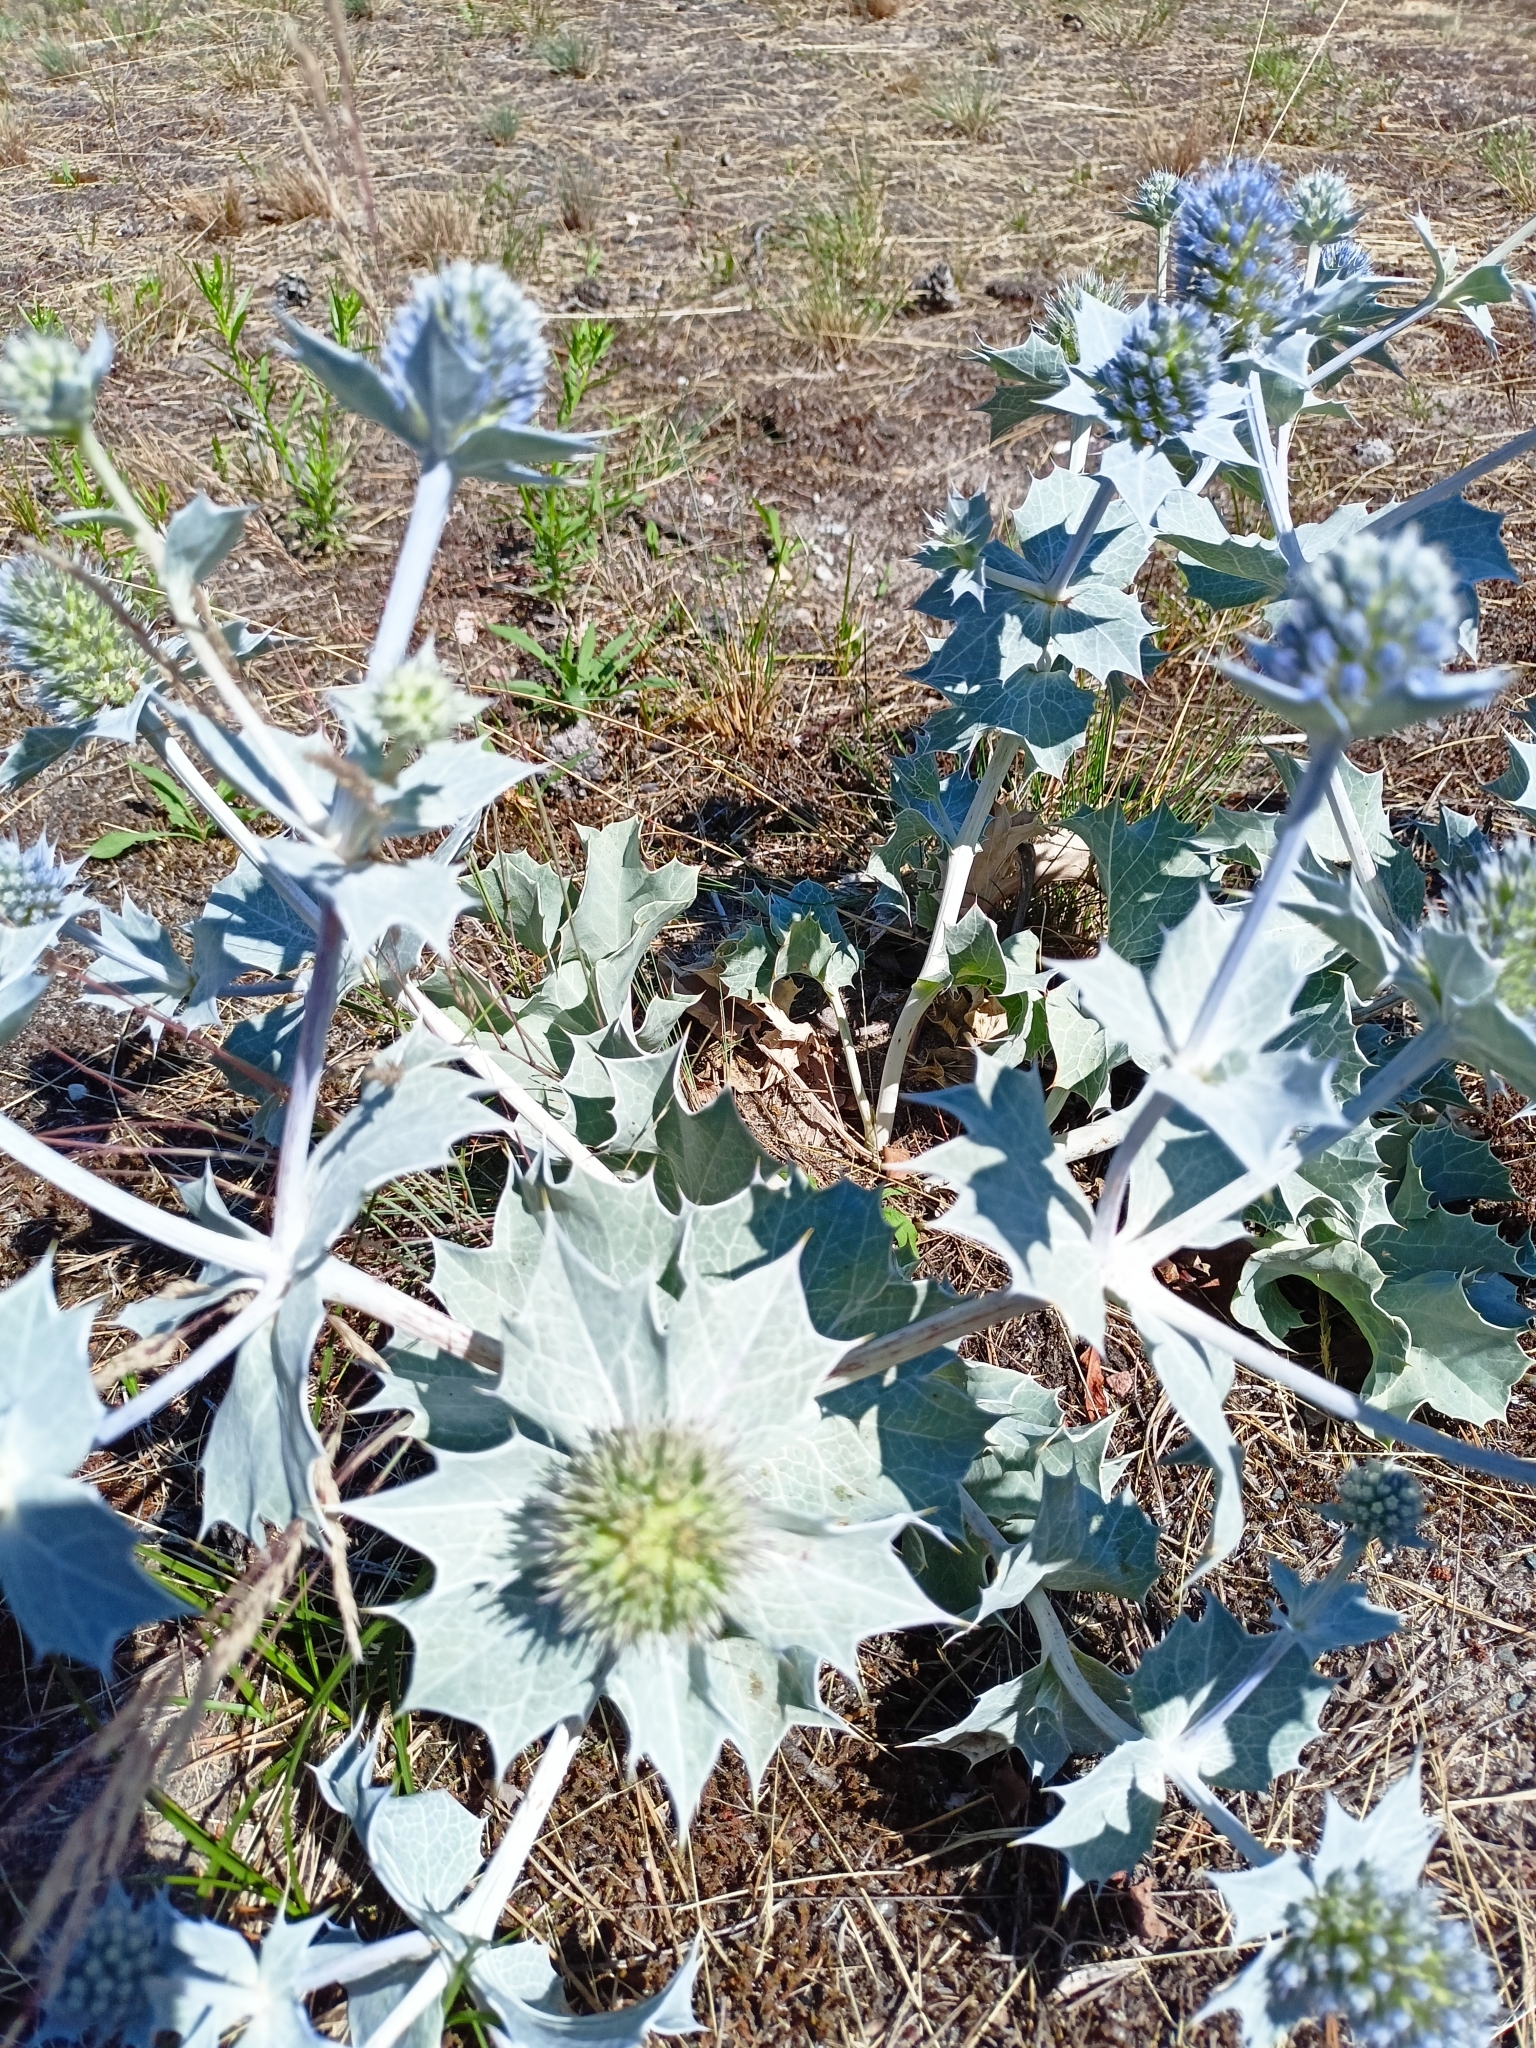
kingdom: Plantae
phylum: Tracheophyta
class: Magnoliopsida
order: Apiales
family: Apiaceae
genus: Eryngium
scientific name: Eryngium maritimum
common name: Sea-holly
